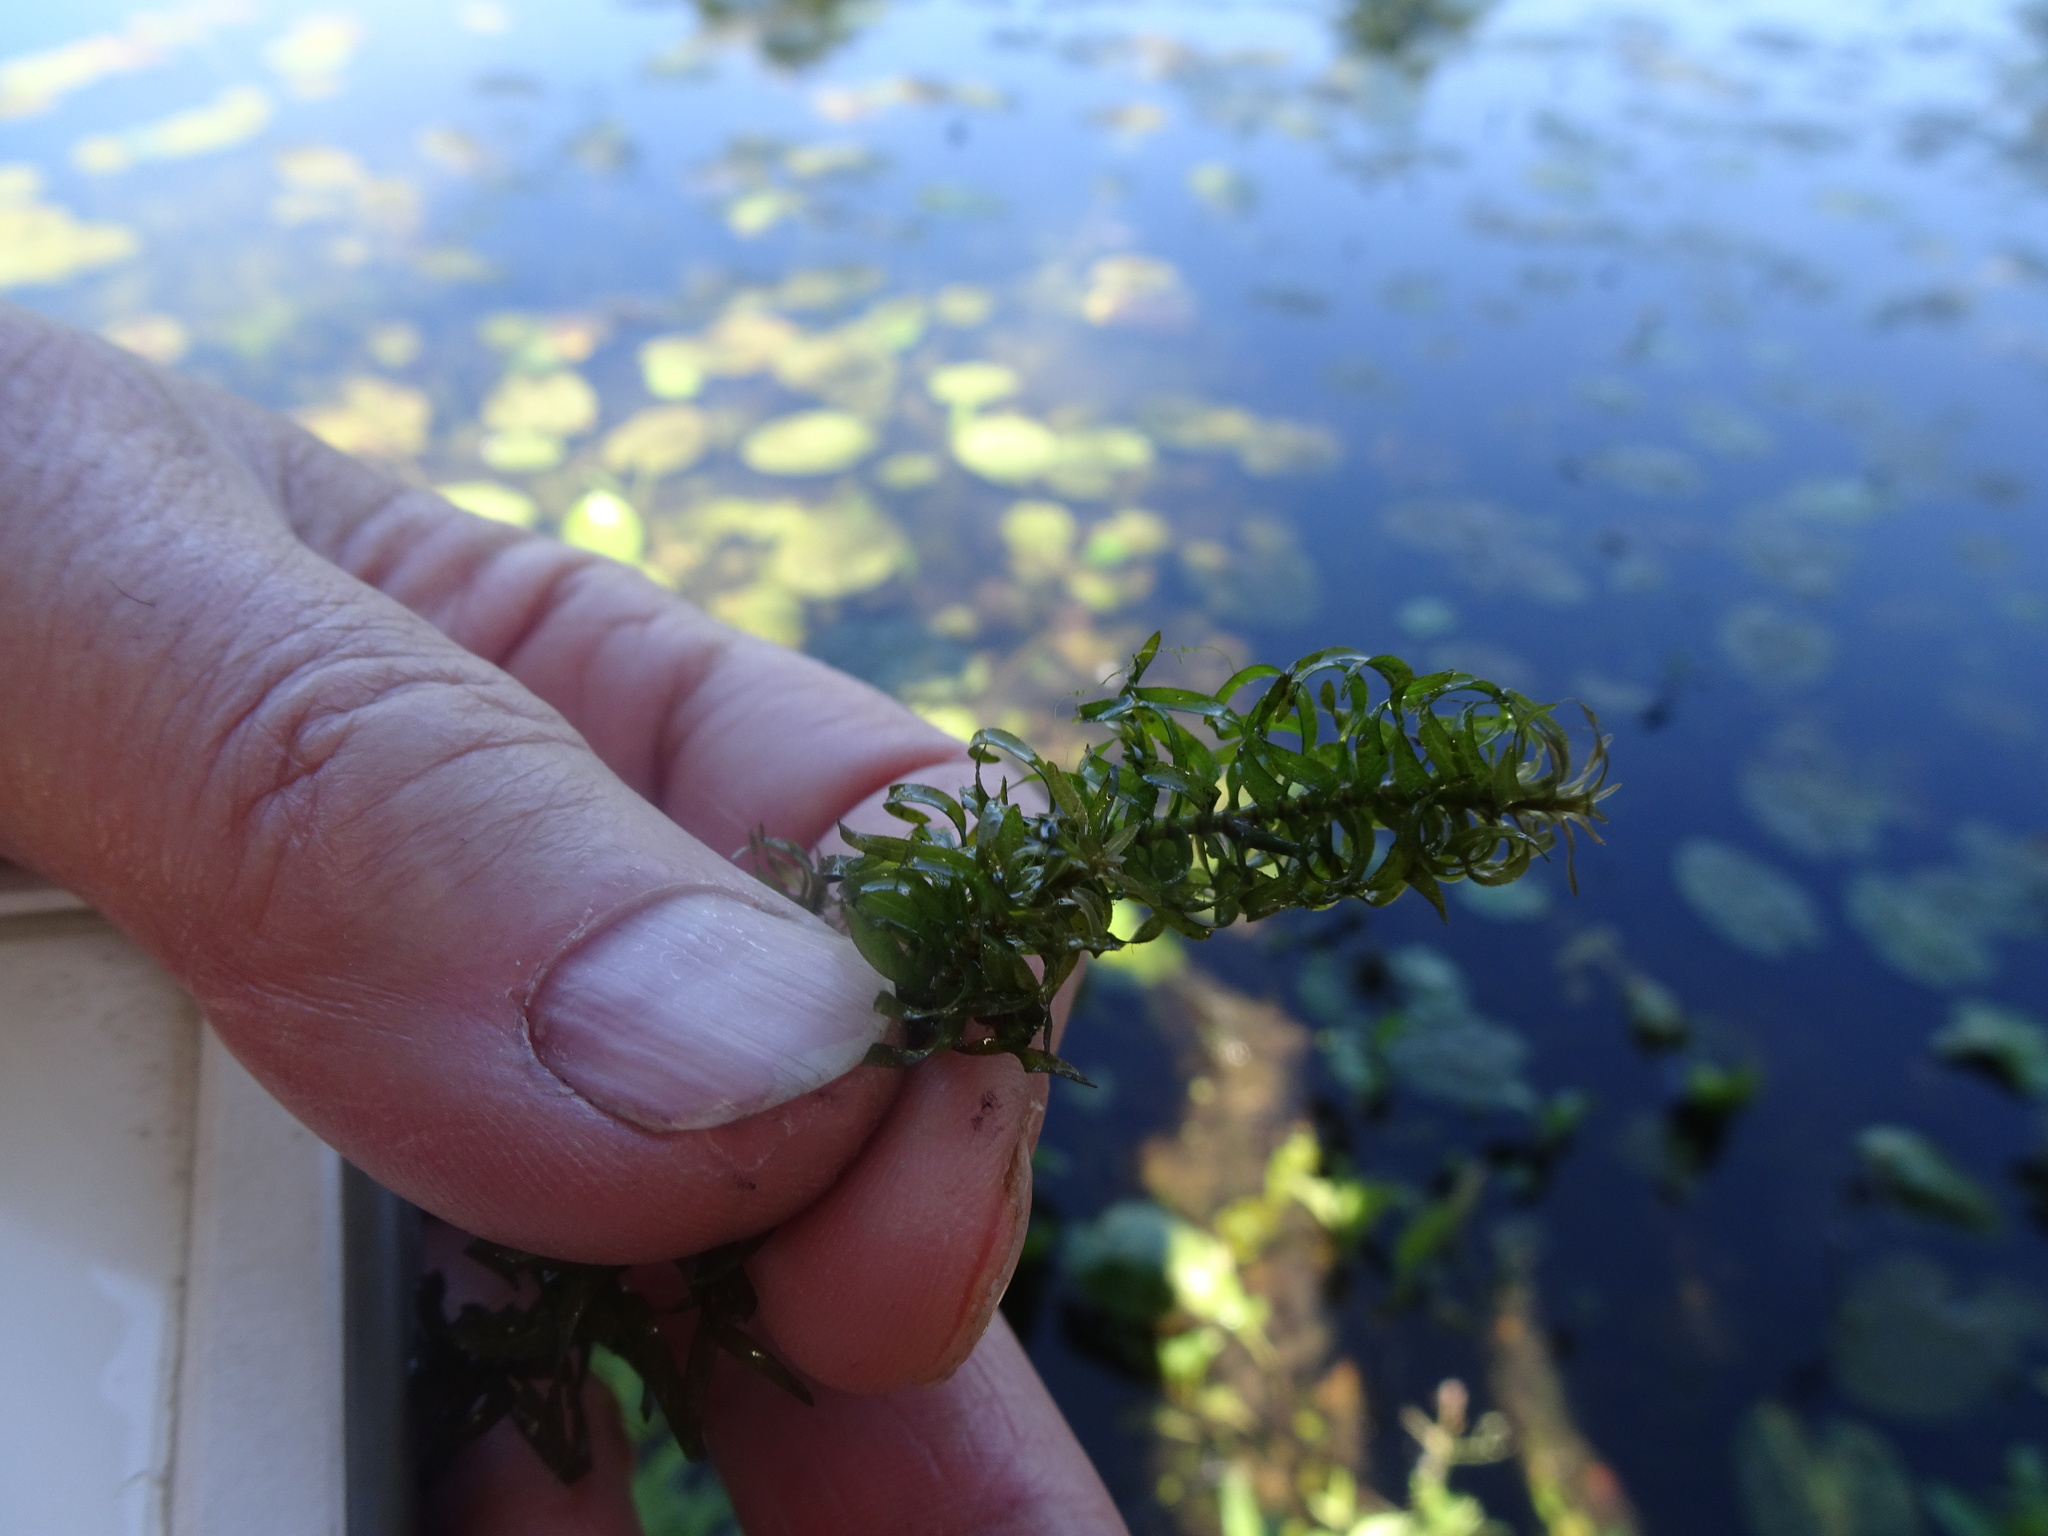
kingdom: Plantae
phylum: Tracheophyta
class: Liliopsida
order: Alismatales
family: Hydrocharitaceae
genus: Elodea
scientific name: Elodea nuttallii
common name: Nuttall's waterweed
